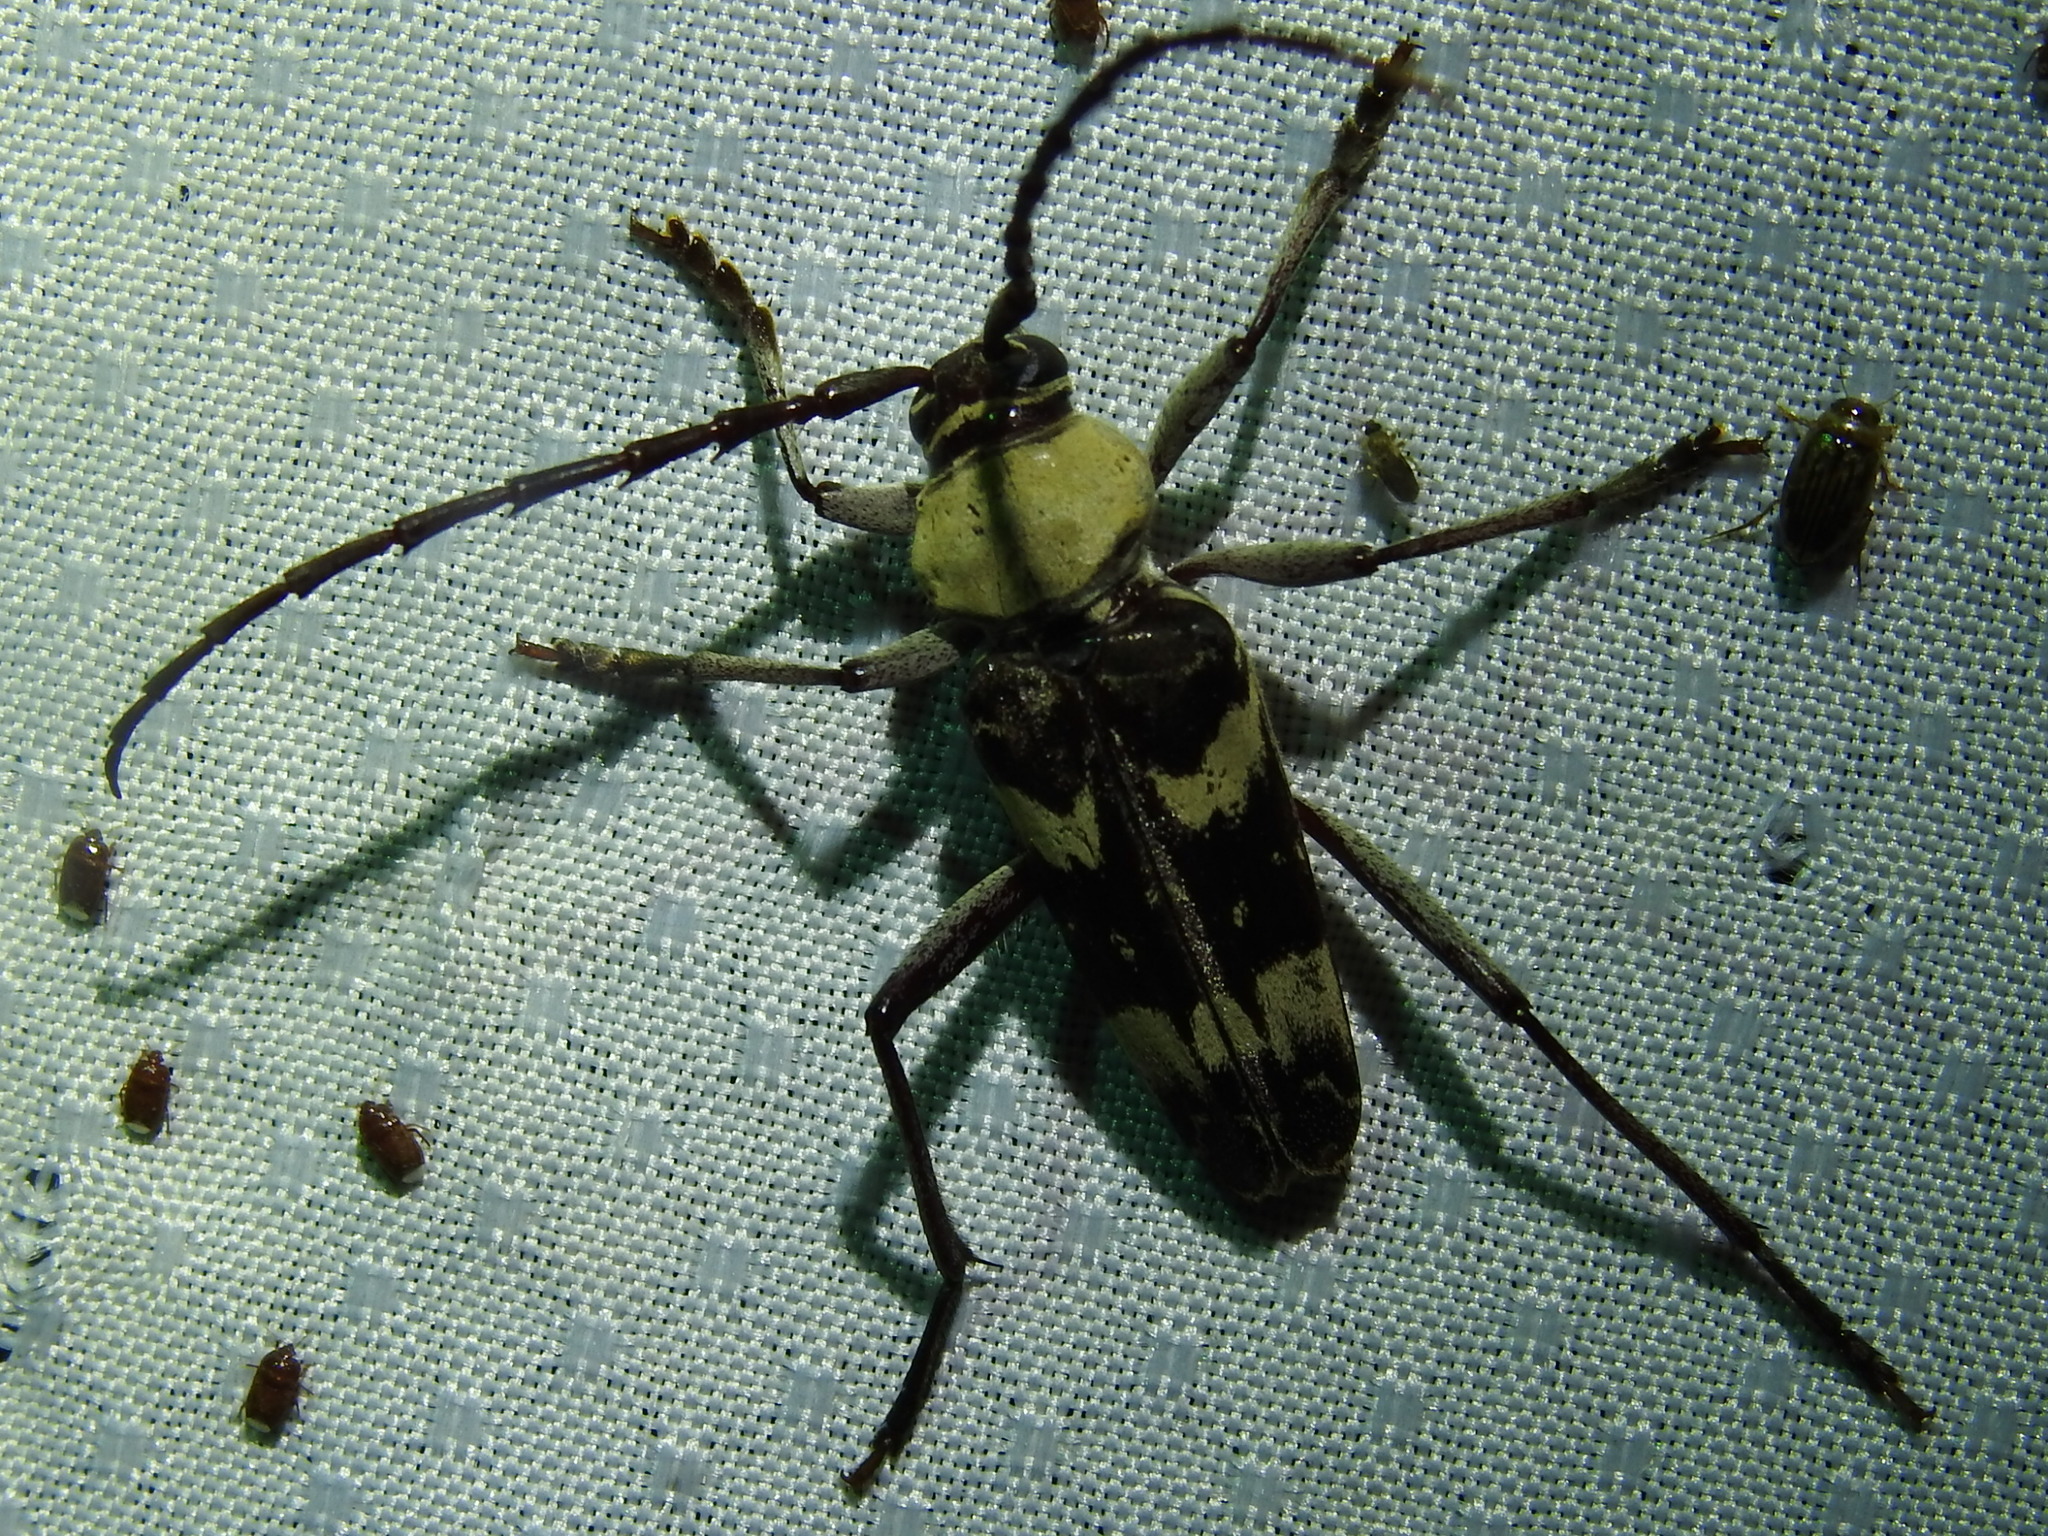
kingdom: Animalia
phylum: Arthropoda
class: Insecta
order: Coleoptera
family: Cerambycidae
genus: Megacyllene
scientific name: Megacyllene antennata
